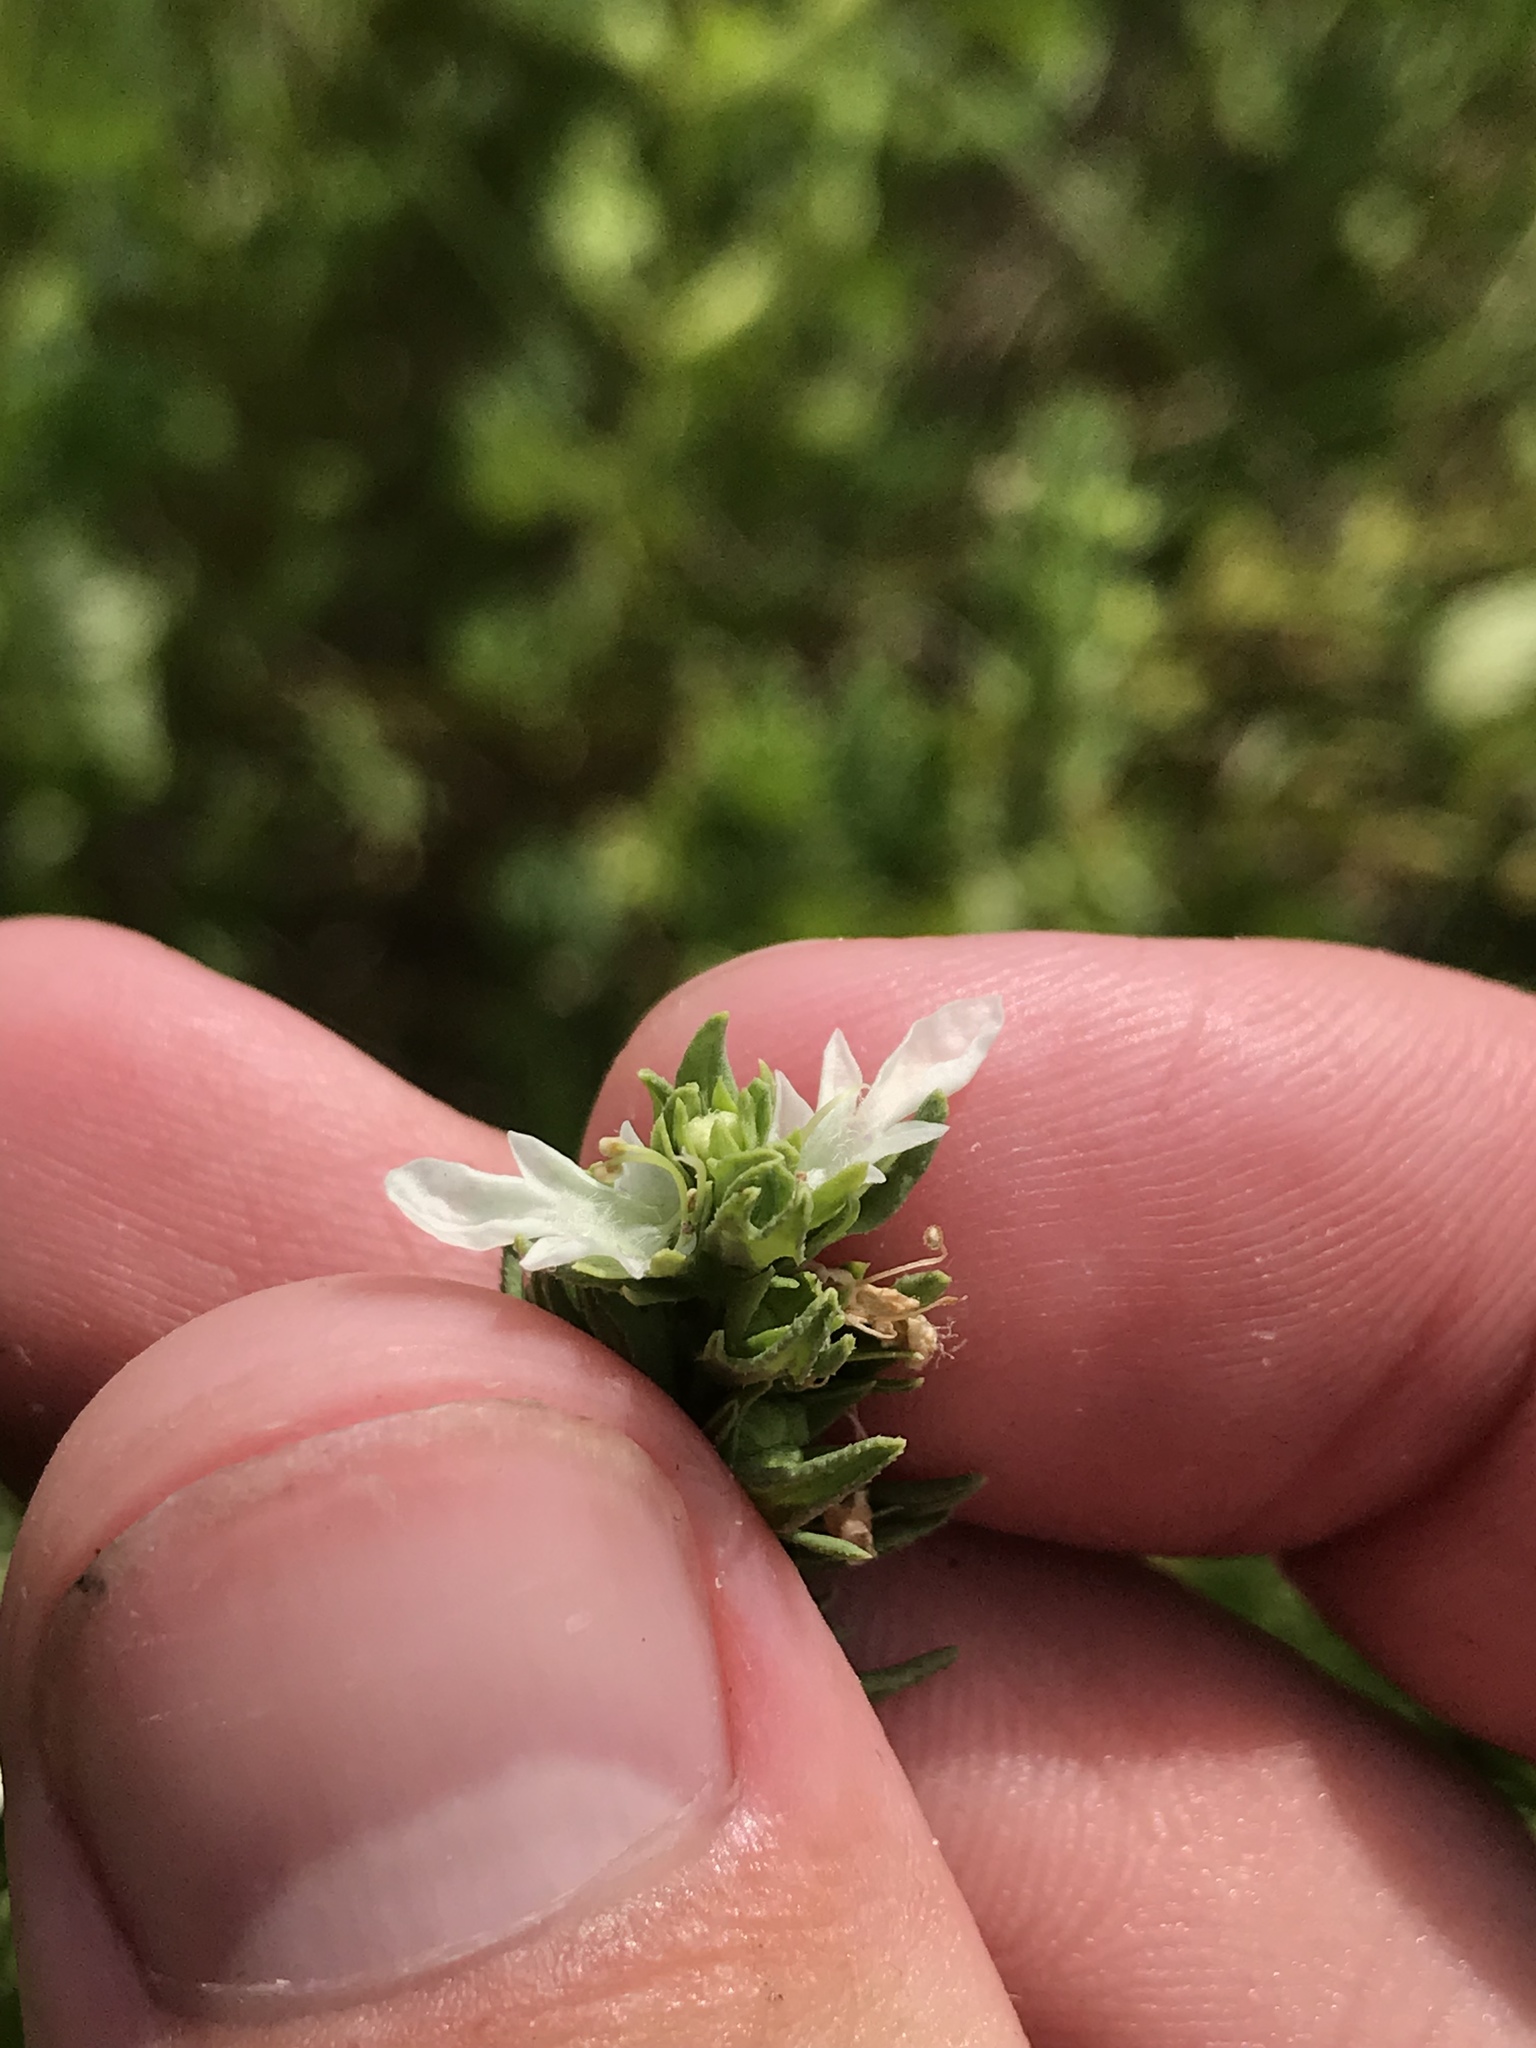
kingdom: Plantae
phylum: Tracheophyta
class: Magnoliopsida
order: Lamiales
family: Lamiaceae
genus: Teucrium
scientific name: Teucrium cubense
